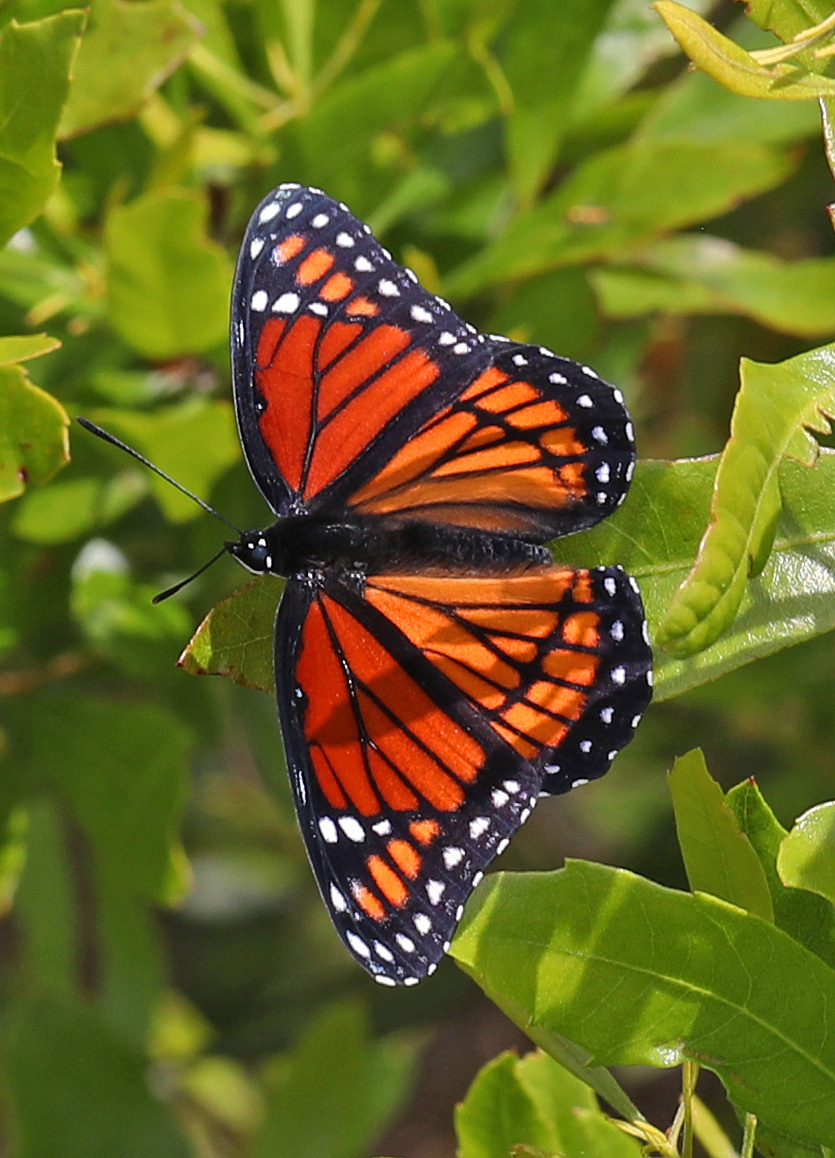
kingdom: Animalia
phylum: Arthropoda
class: Insecta
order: Lepidoptera
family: Nymphalidae
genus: Limenitis
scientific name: Limenitis archippus
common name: Viceroy
